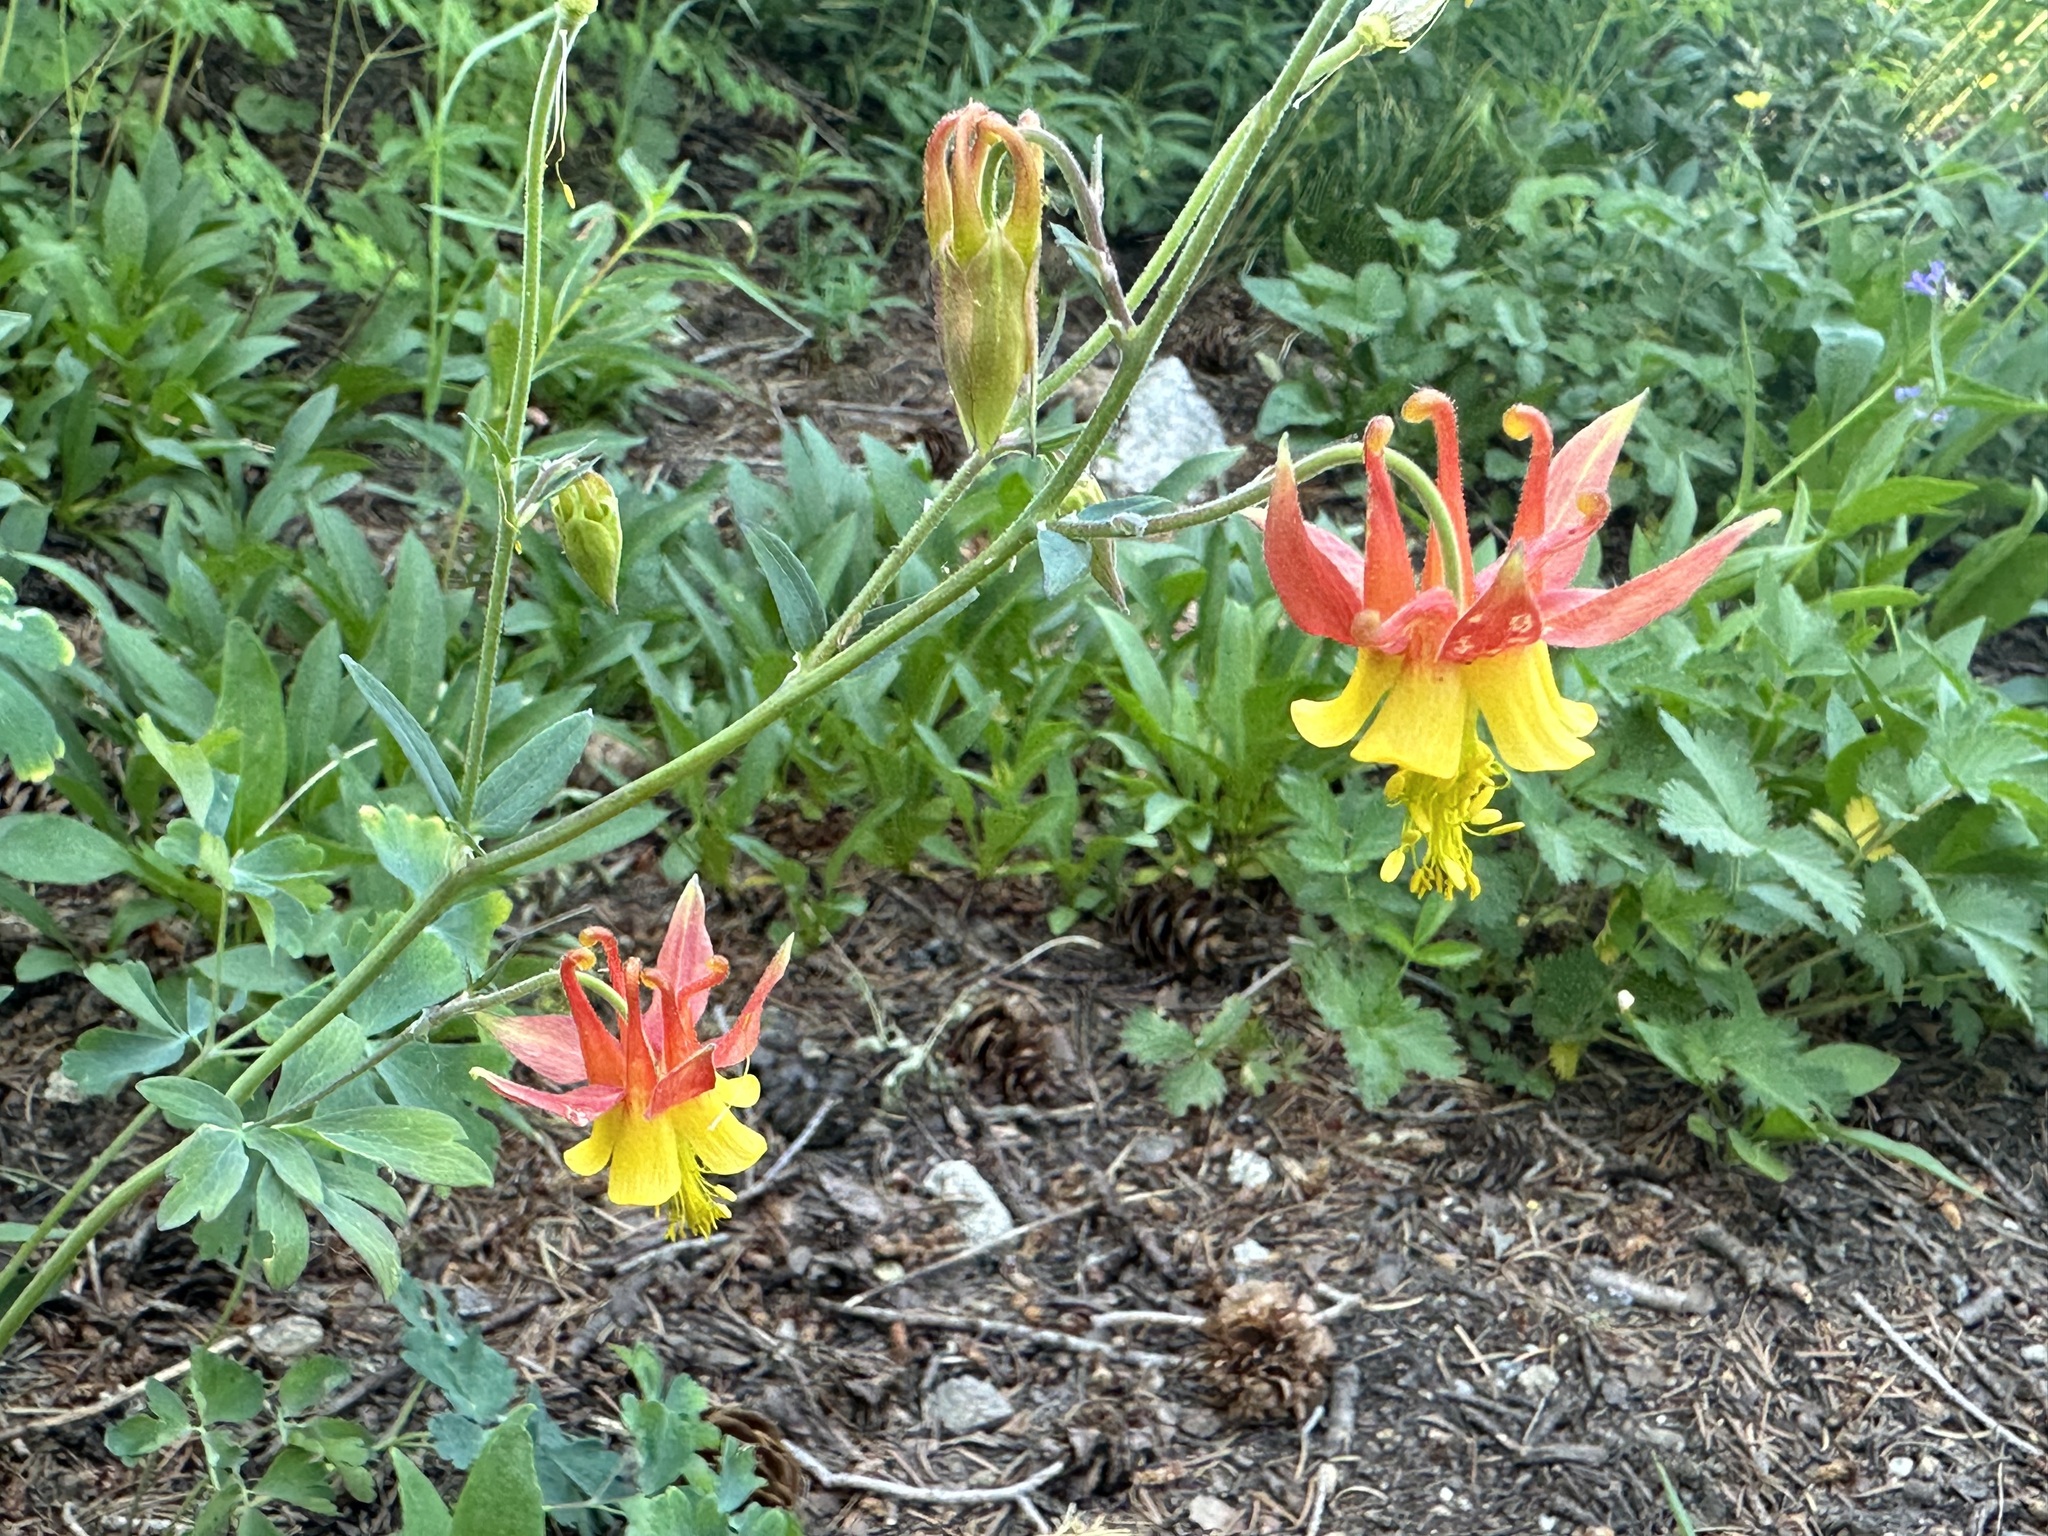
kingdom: Plantae
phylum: Tracheophyta
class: Magnoliopsida
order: Ranunculales
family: Ranunculaceae
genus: Aquilegia
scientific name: Aquilegia miniana
